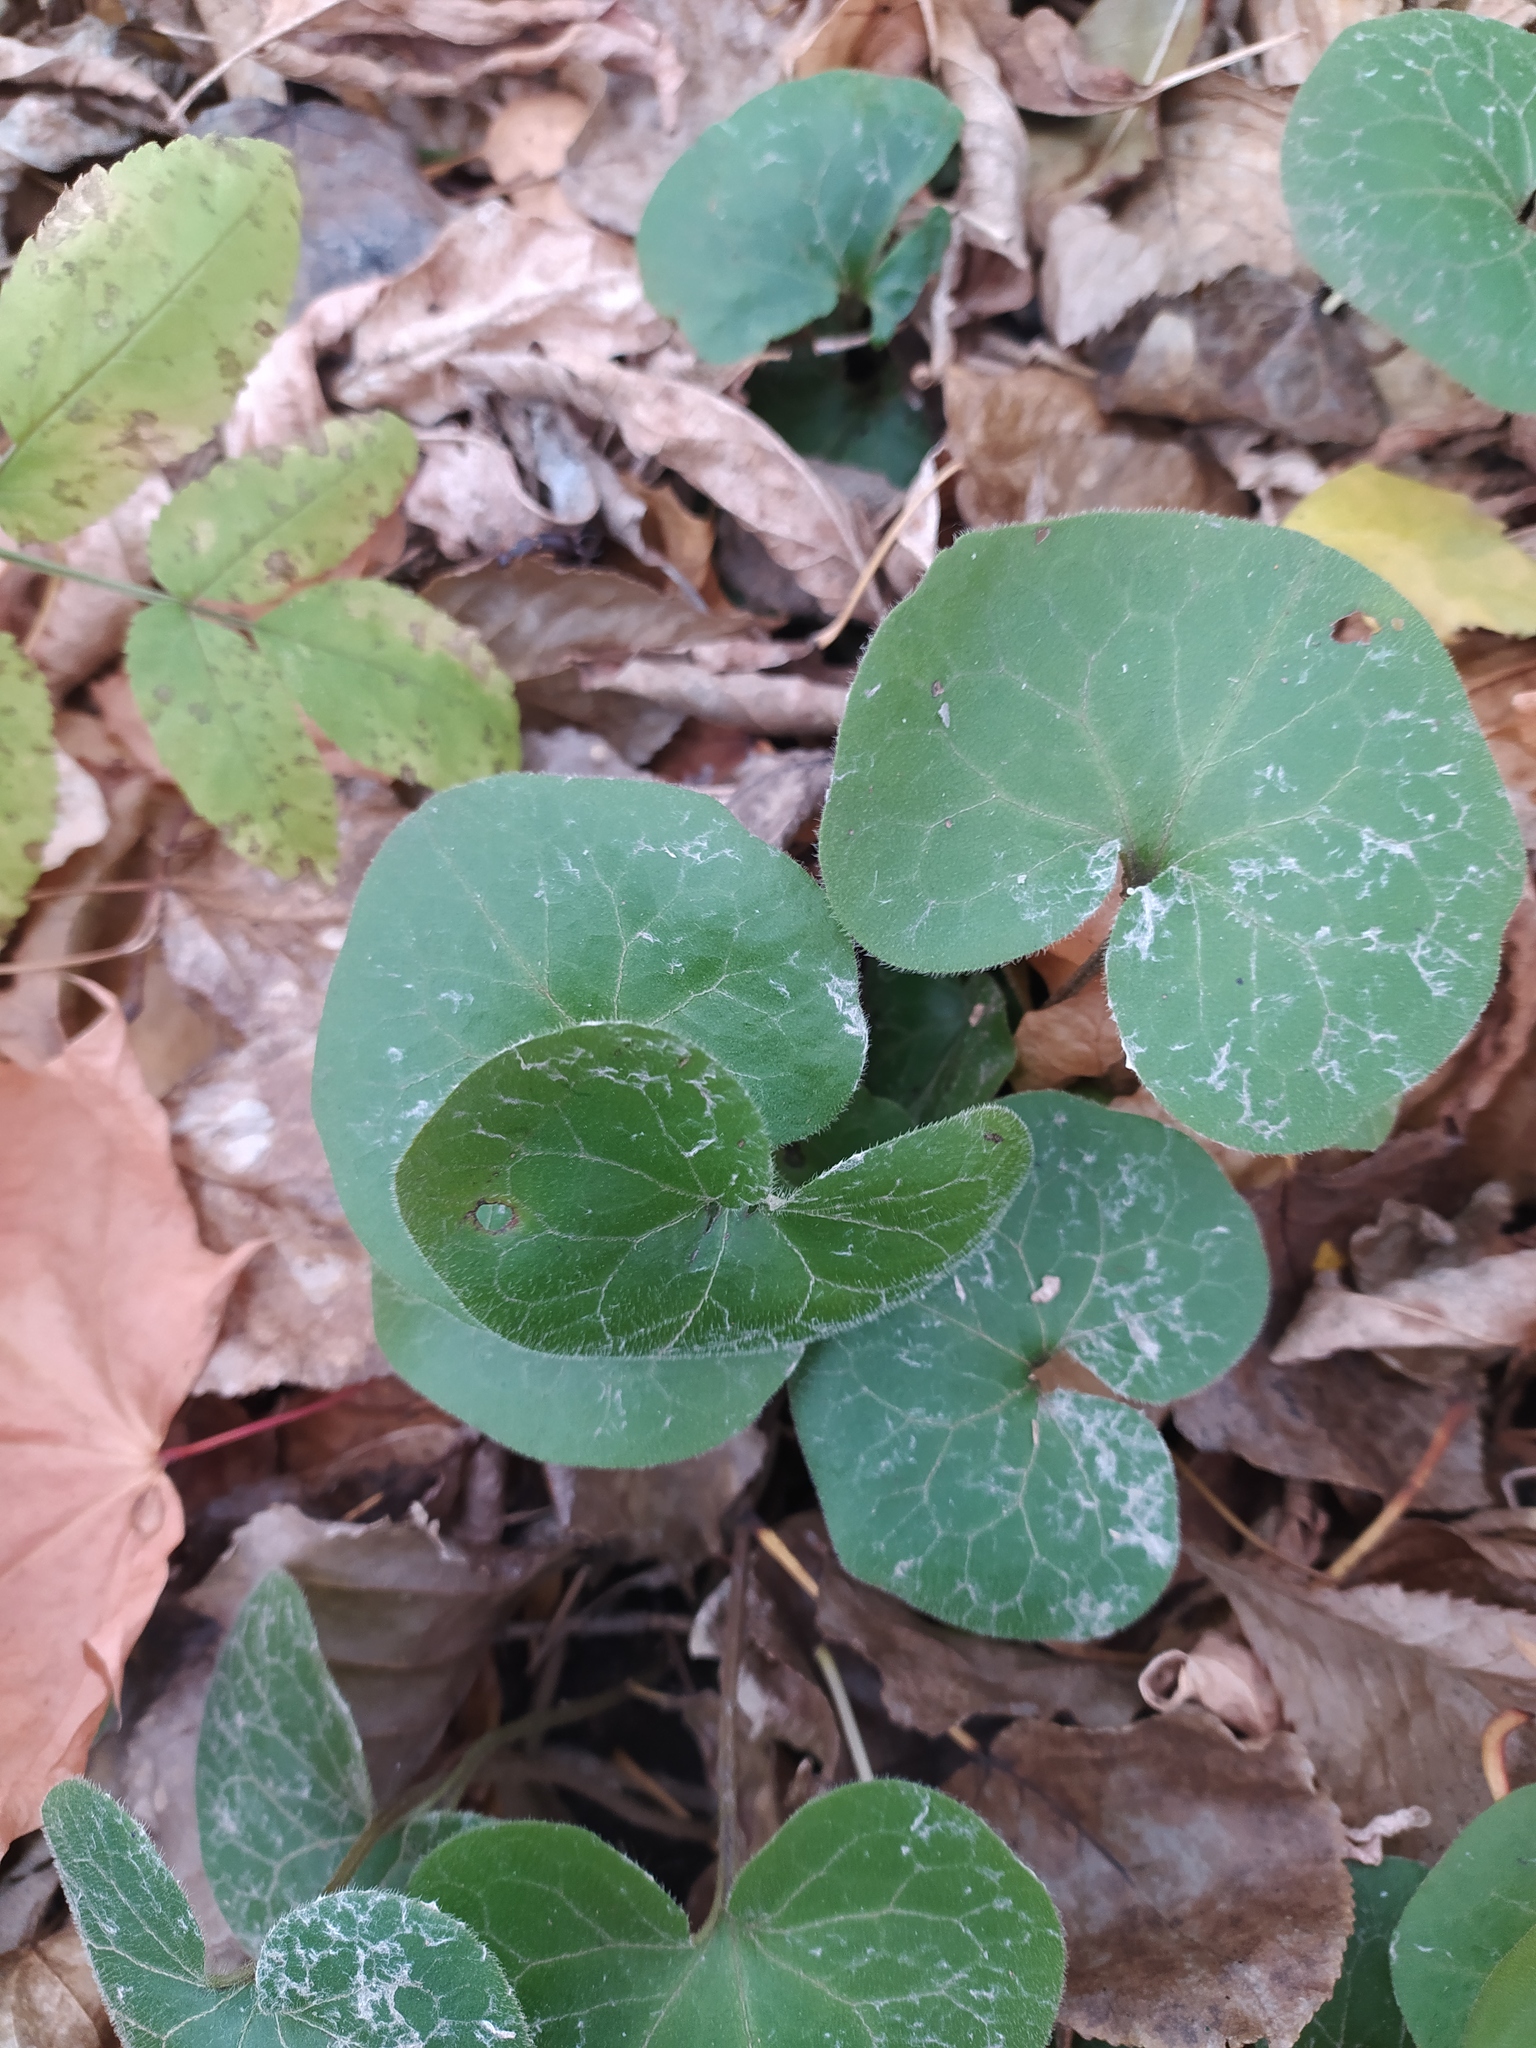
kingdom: Plantae
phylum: Tracheophyta
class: Magnoliopsida
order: Piperales
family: Aristolochiaceae
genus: Asarum
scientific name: Asarum europaeum
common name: Asarabacca
